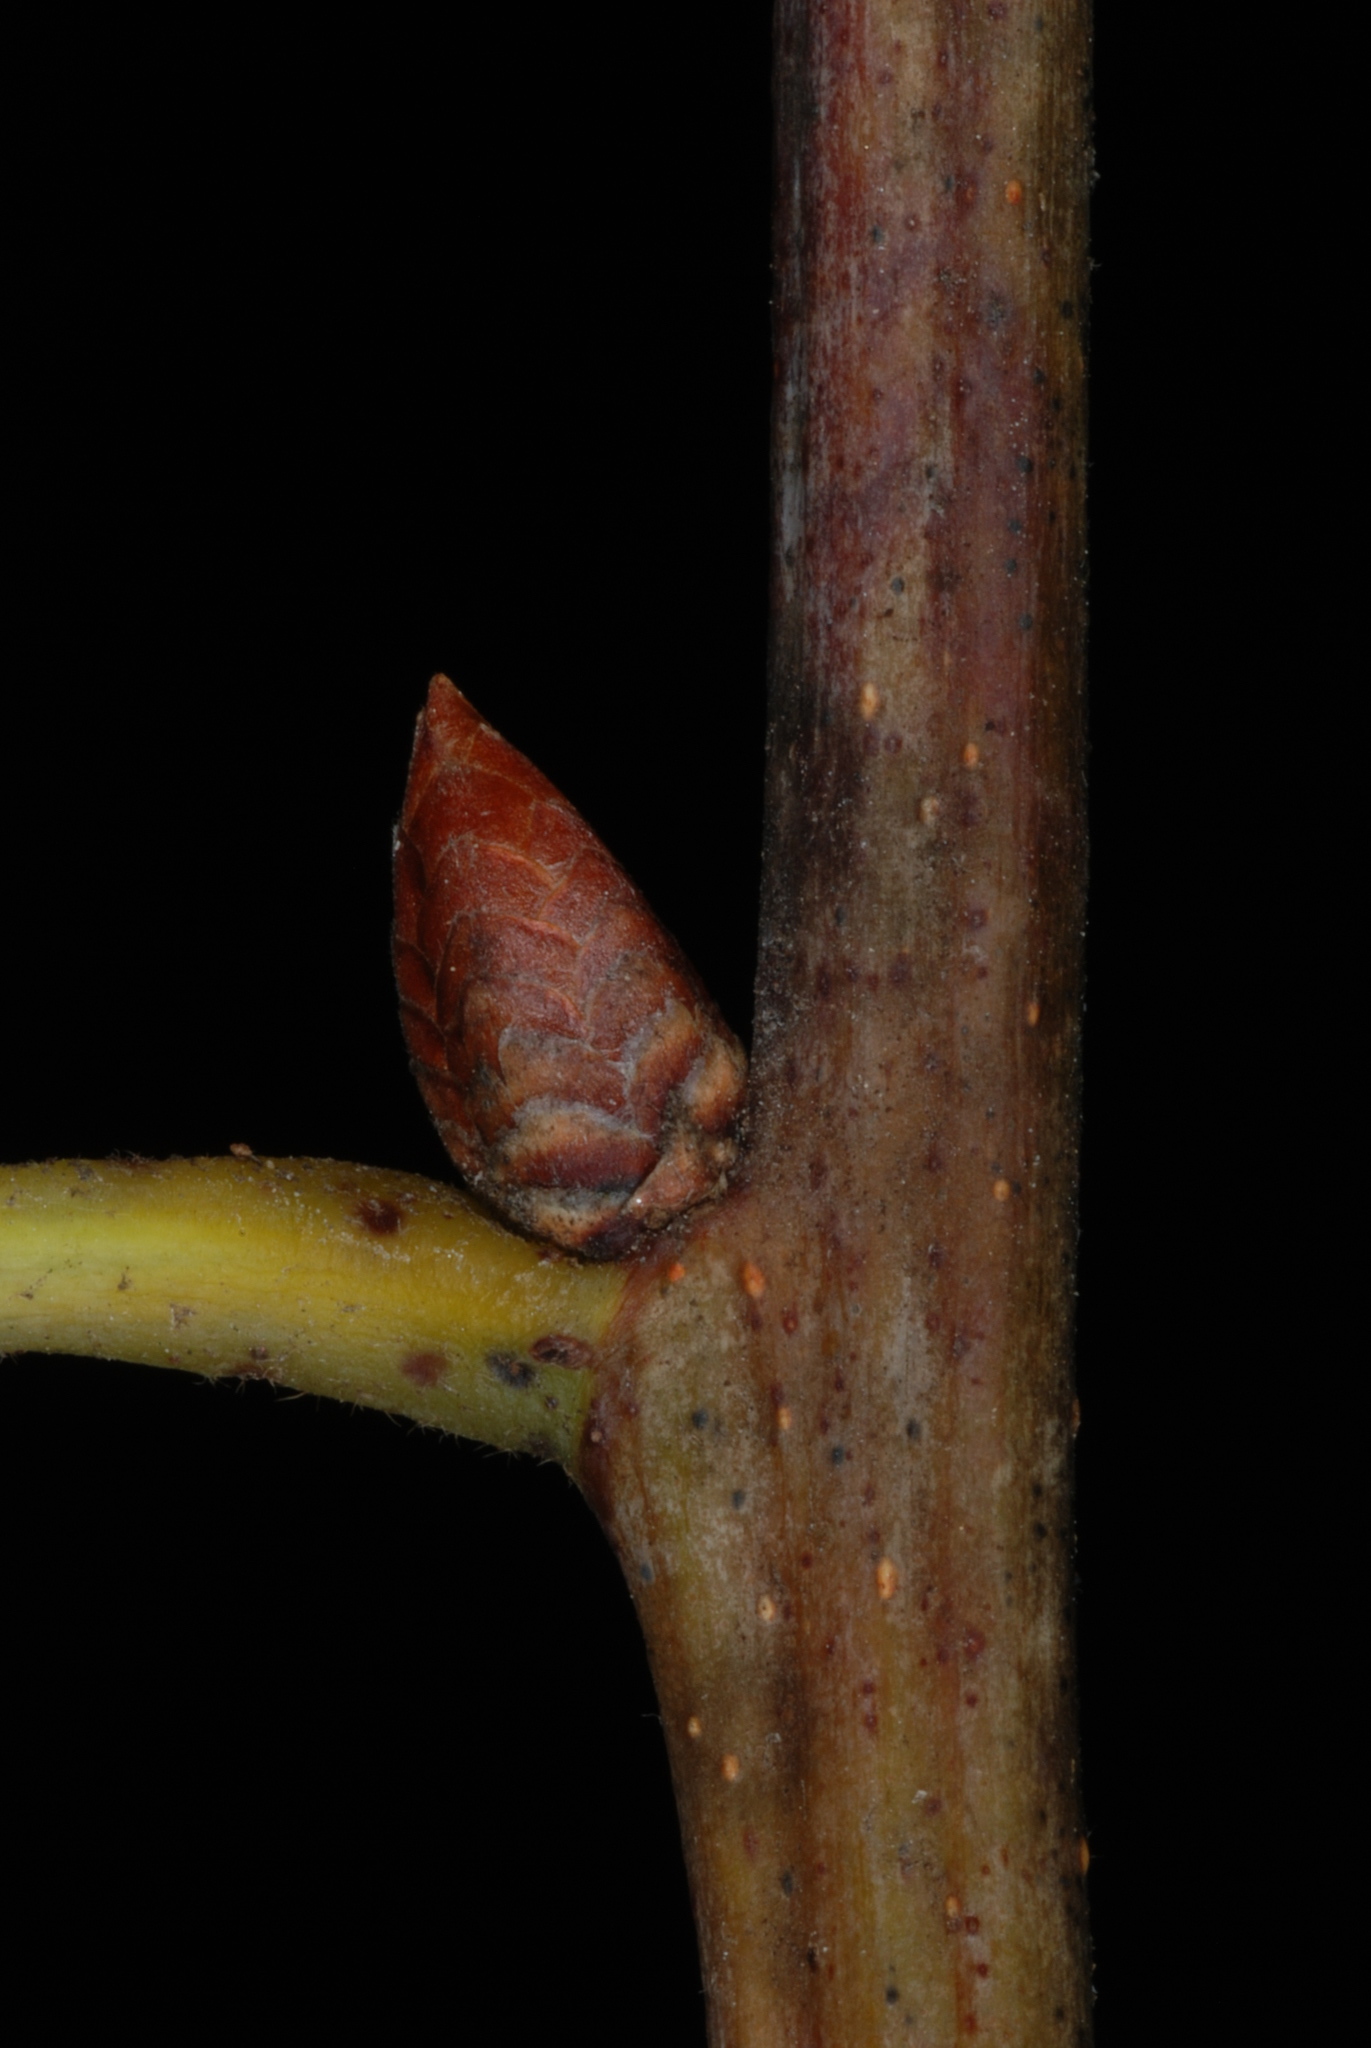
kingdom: Plantae
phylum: Tracheophyta
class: Magnoliopsida
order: Fagales
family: Fagaceae
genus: Quercus
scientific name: Quercus beadlei
